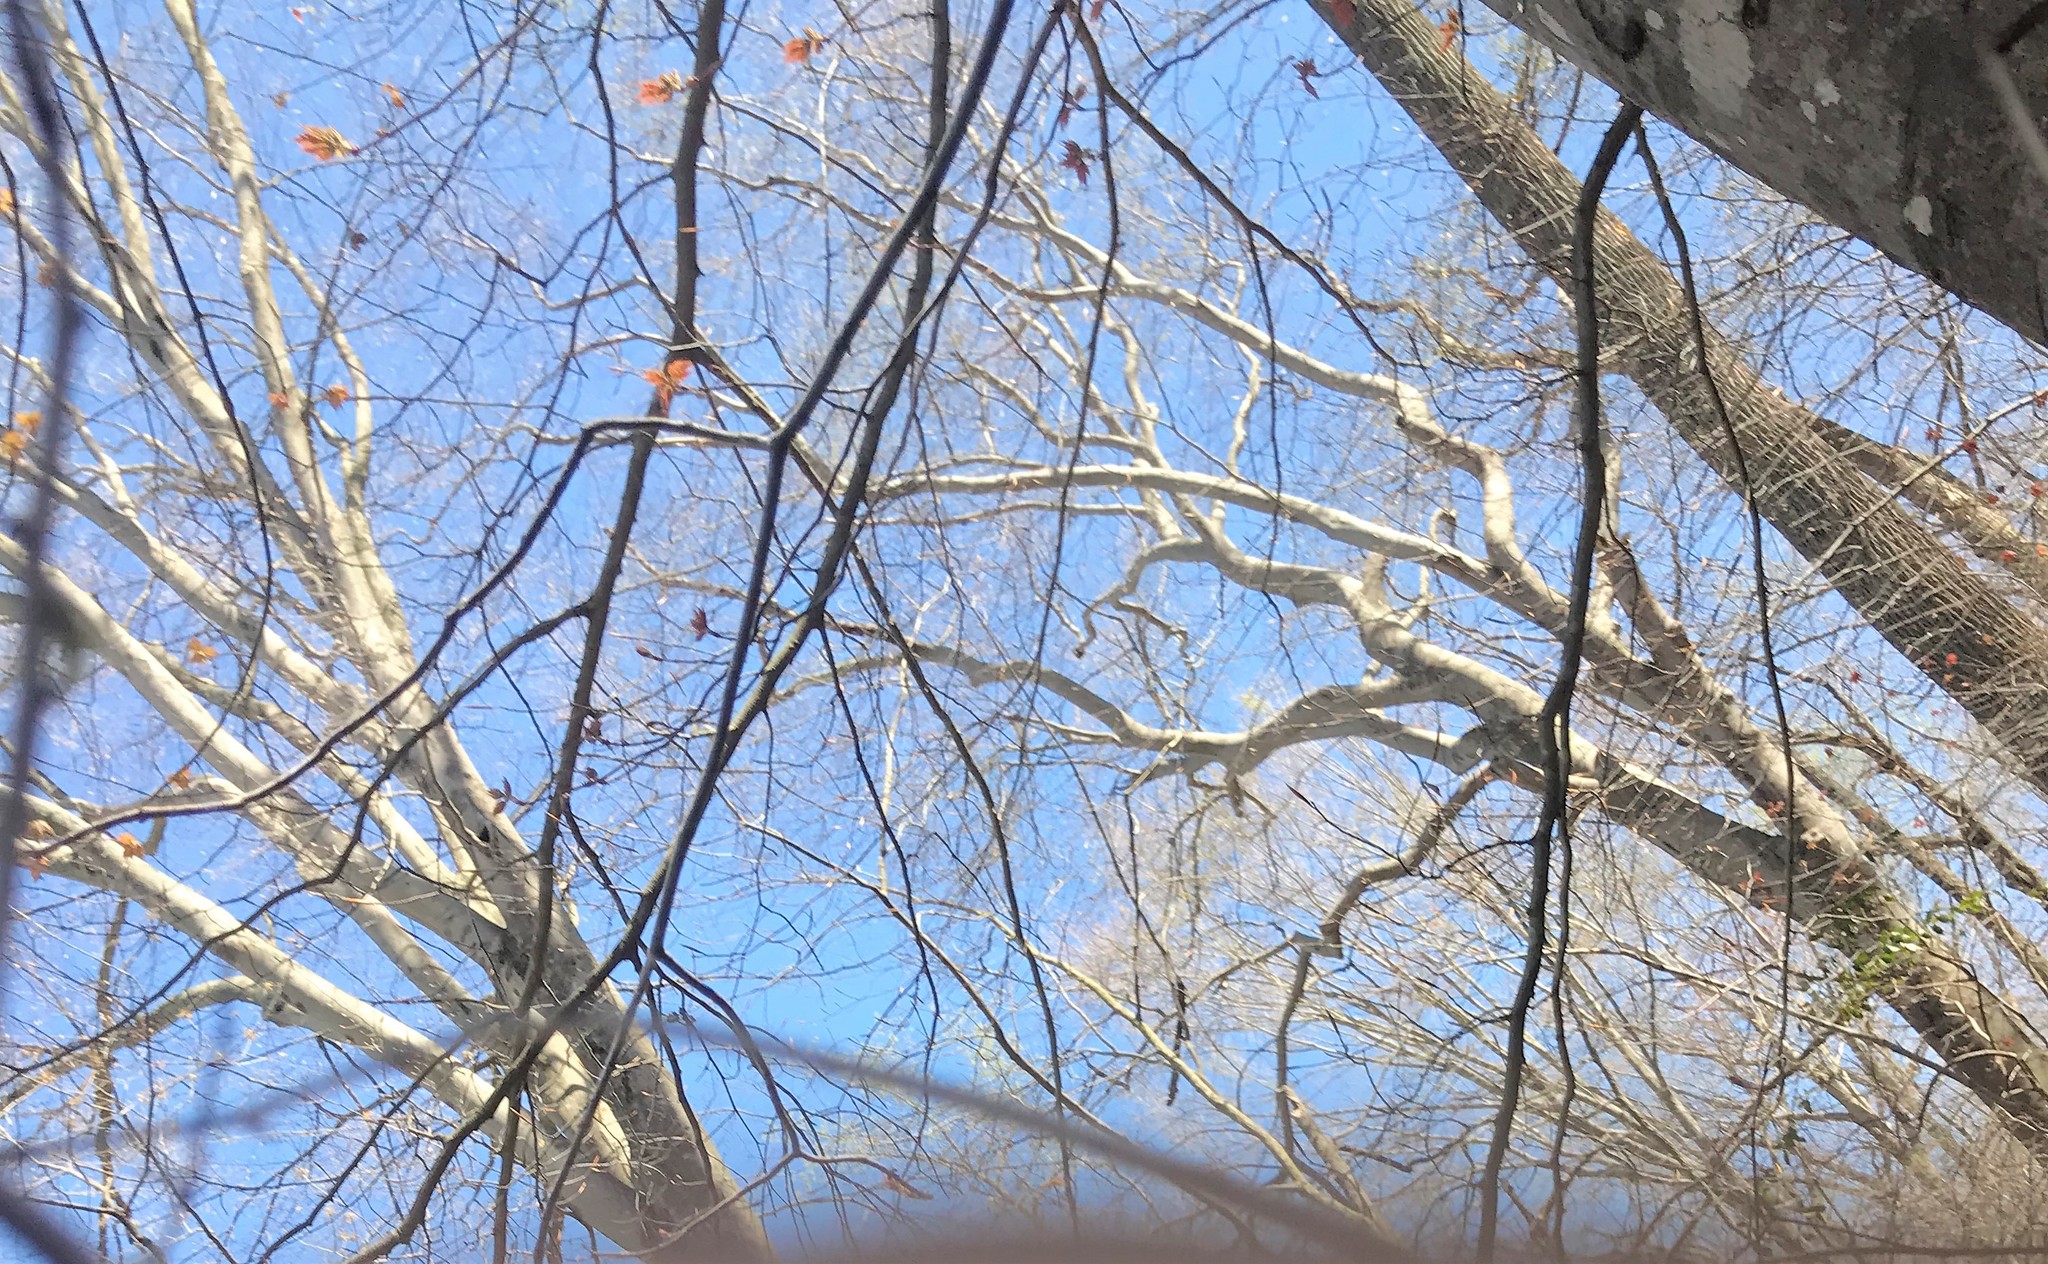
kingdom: Plantae
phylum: Tracheophyta
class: Magnoliopsida
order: Proteales
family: Platanaceae
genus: Platanus
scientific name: Platanus occidentalis
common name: American sycamore
